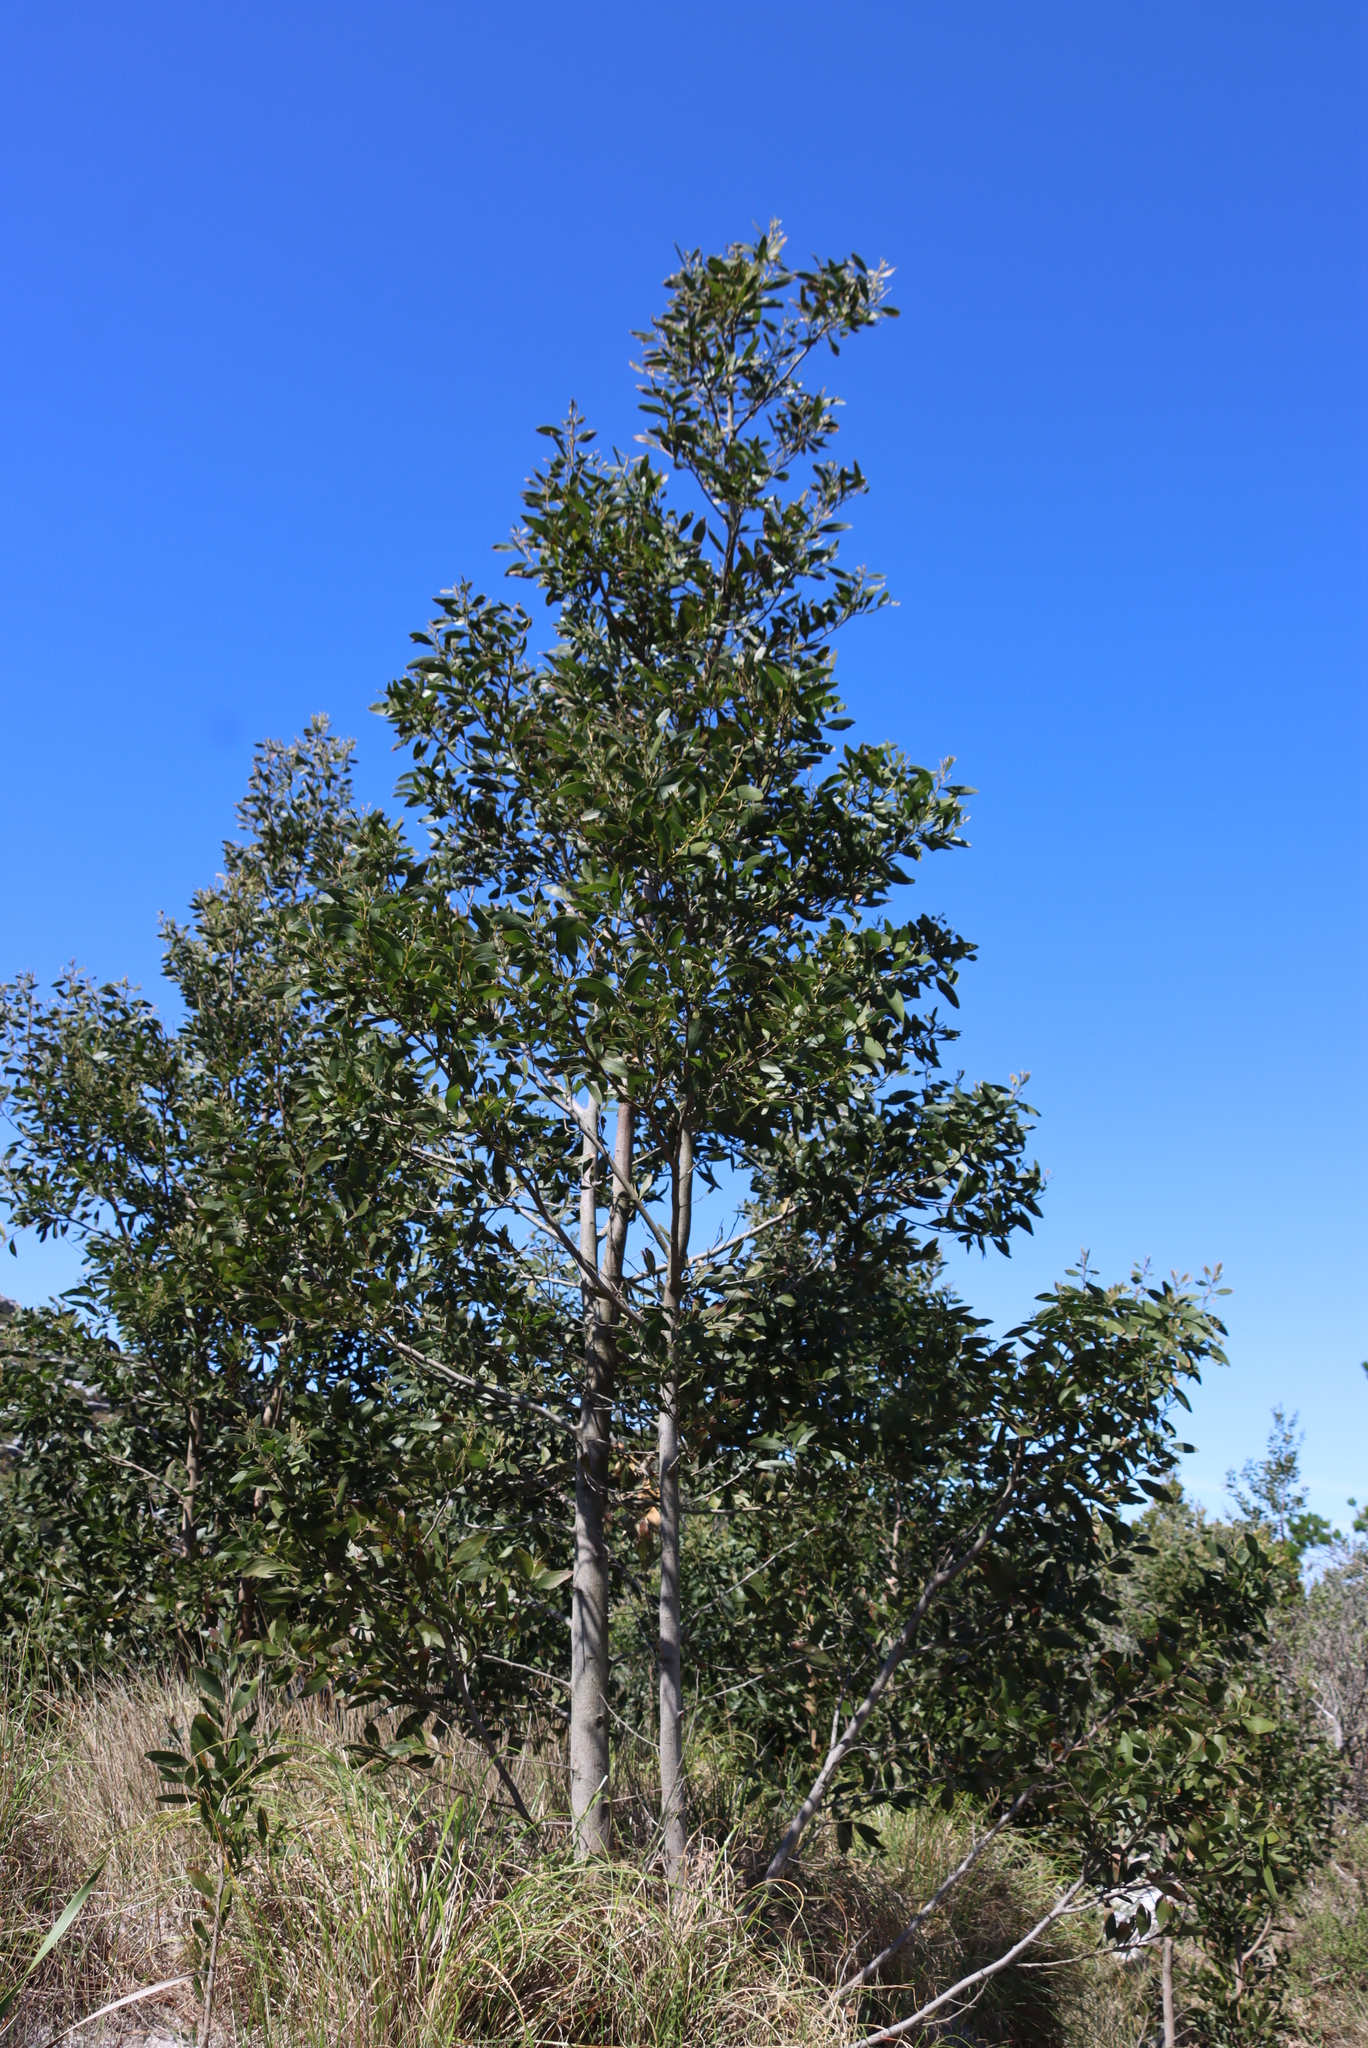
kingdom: Plantae
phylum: Tracheophyta
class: Magnoliopsida
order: Fabales
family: Fabaceae
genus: Acacia
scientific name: Acacia melanoxylon
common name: Blackwood
